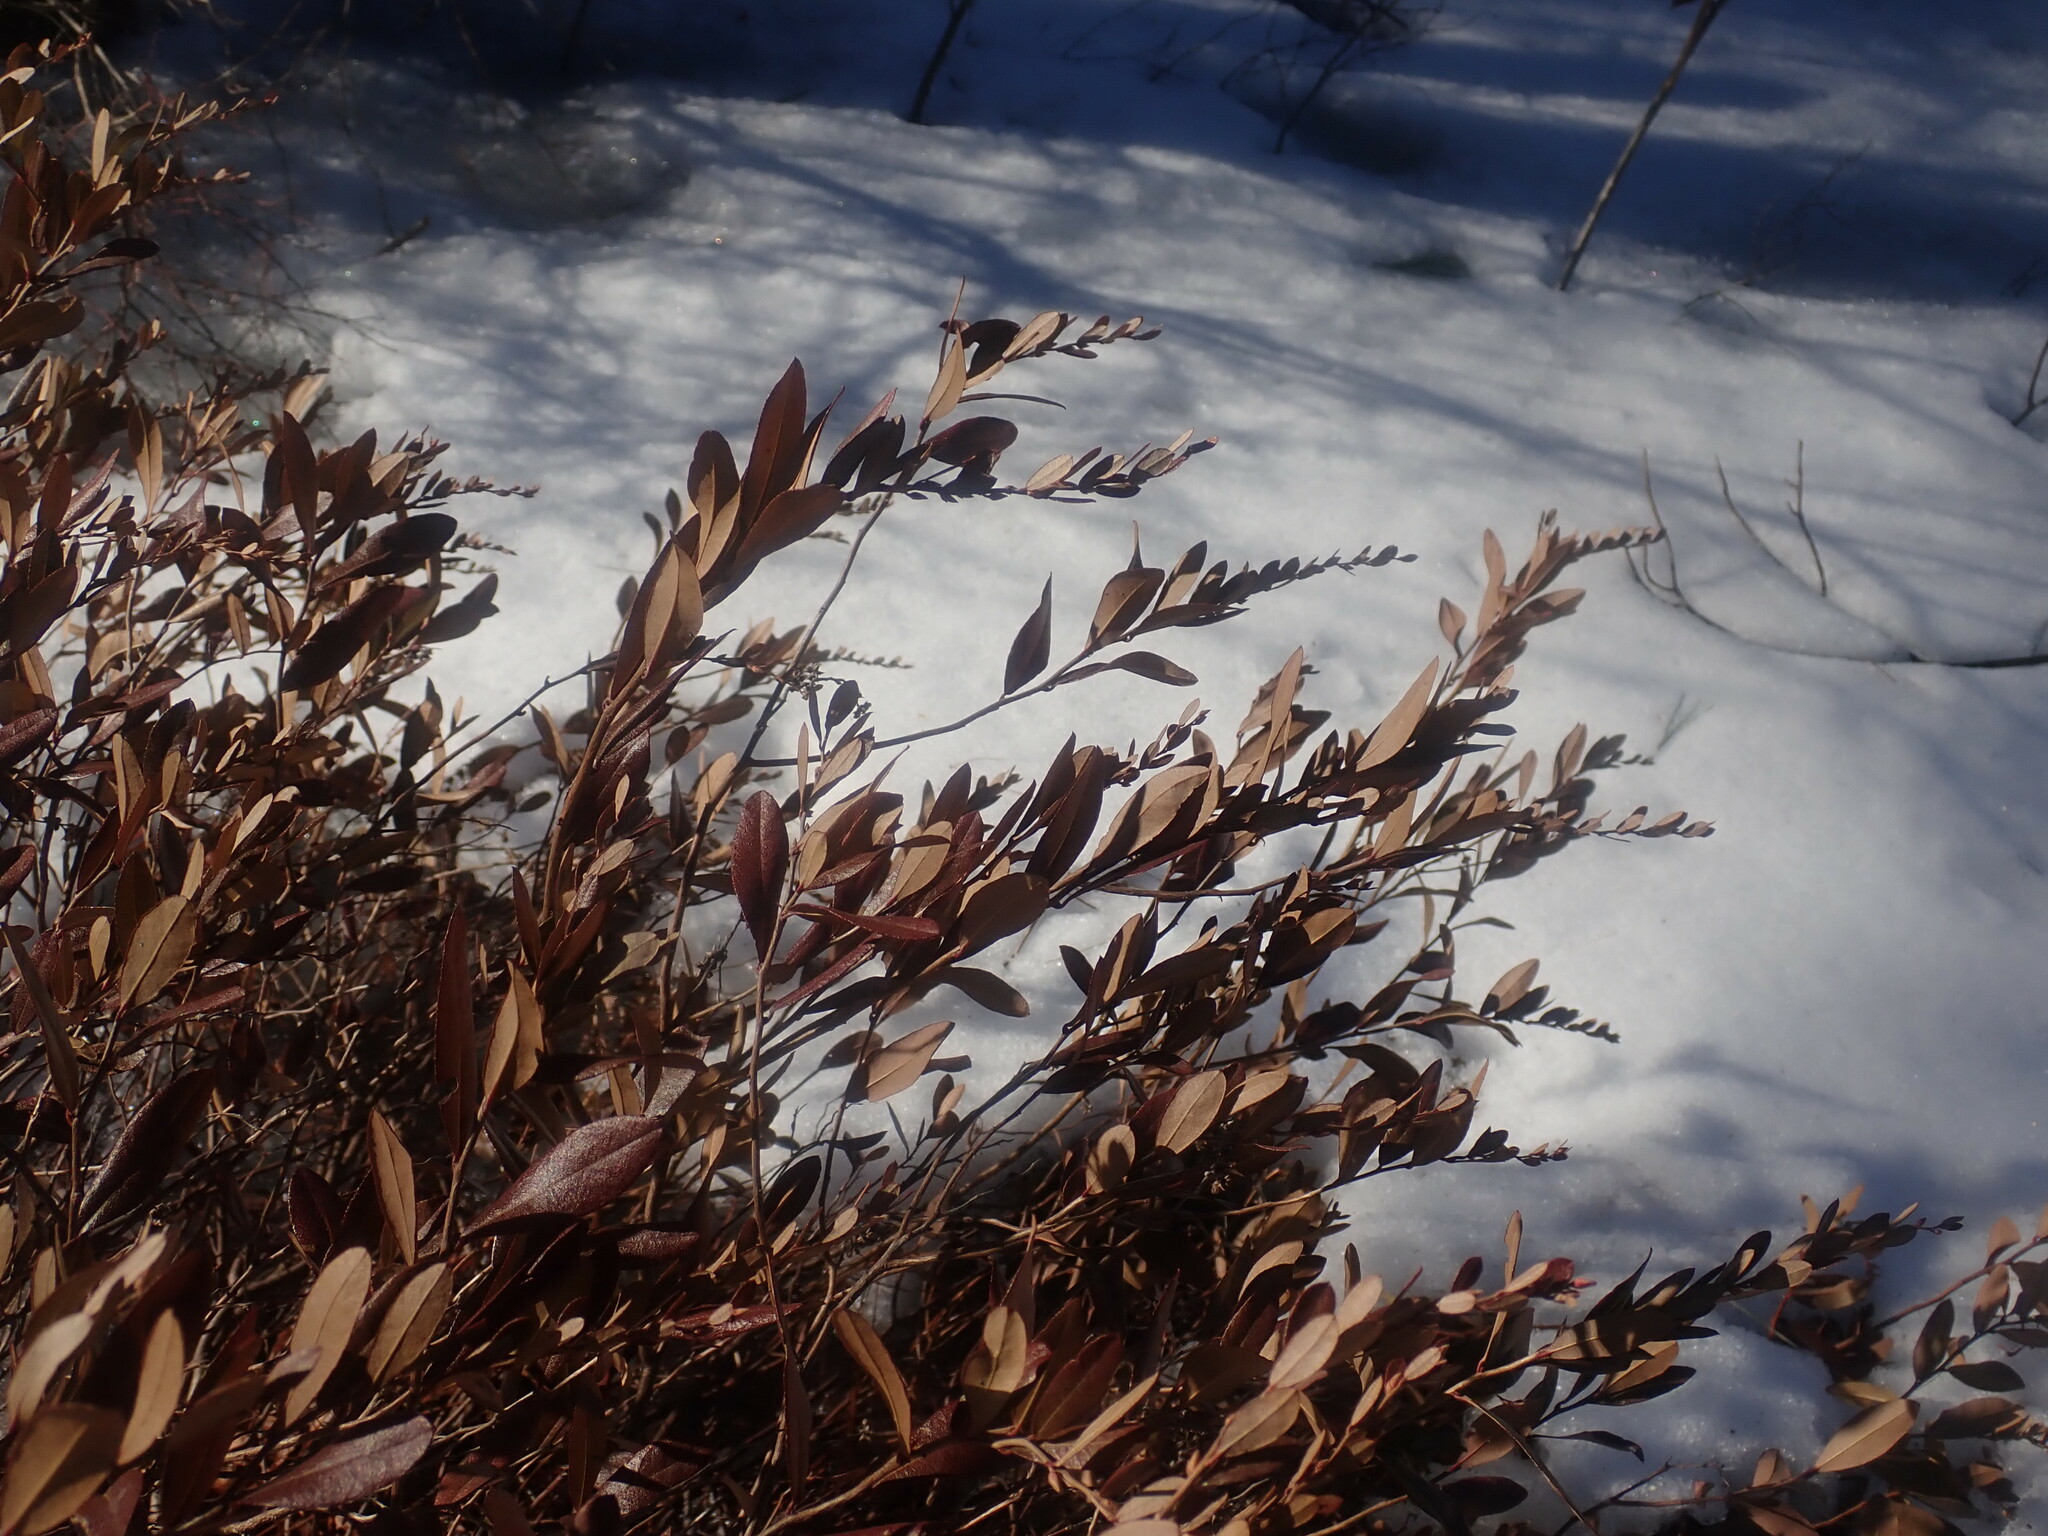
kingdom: Plantae
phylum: Tracheophyta
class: Magnoliopsida
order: Ericales
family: Ericaceae
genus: Chamaedaphne
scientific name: Chamaedaphne calyculata
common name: Leatherleaf
